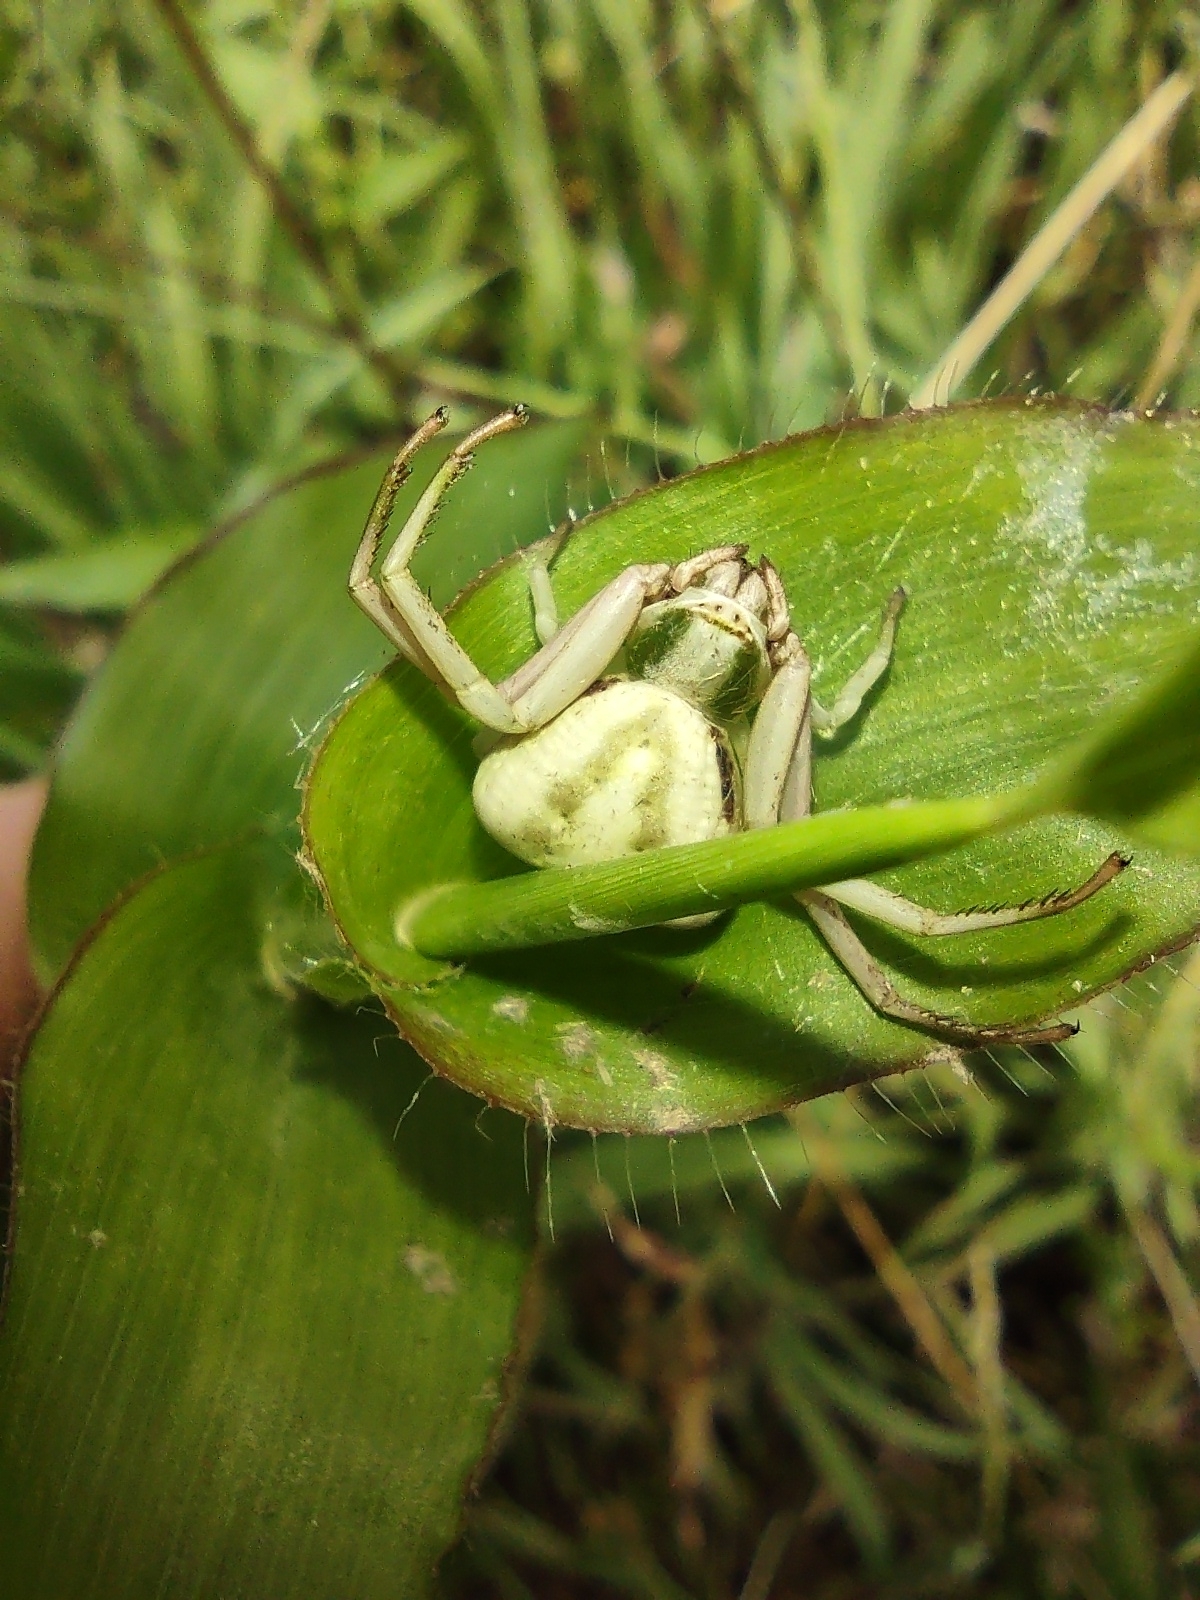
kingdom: Animalia
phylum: Arthropoda
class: Arachnida
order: Araneae
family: Thomisidae
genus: Misumenoides
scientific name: Misumenoides formosipes
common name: White-banded crab spider
